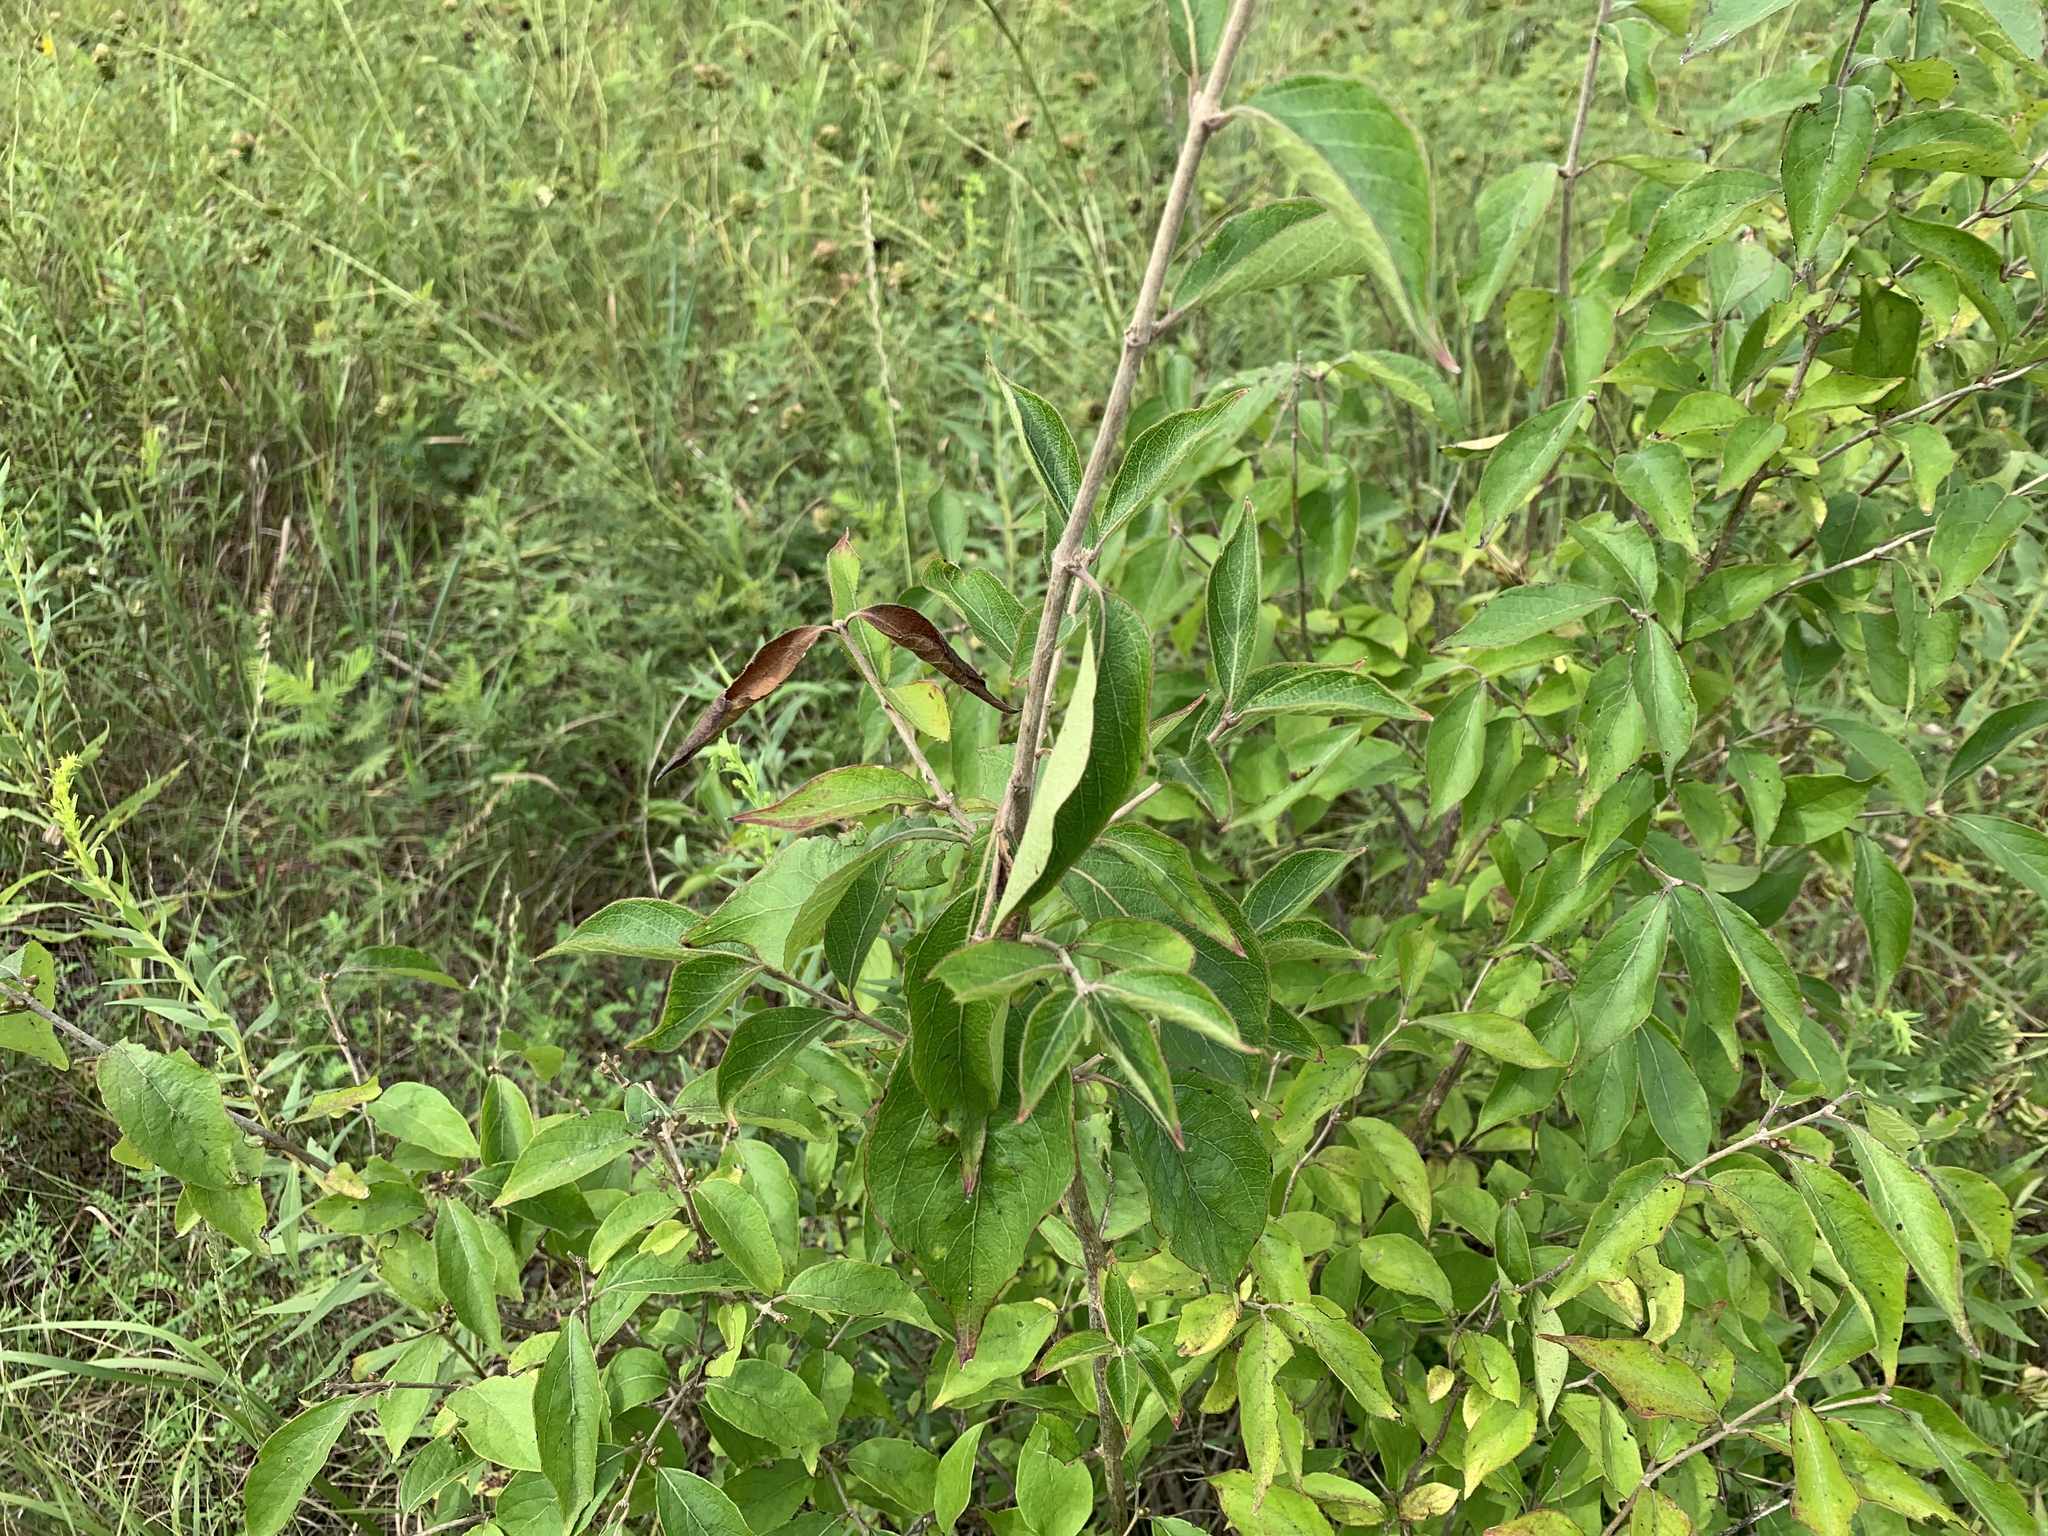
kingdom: Plantae
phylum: Tracheophyta
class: Magnoliopsida
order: Dipsacales
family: Caprifoliaceae
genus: Lonicera
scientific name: Lonicera maackii
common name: Amur honeysuckle
